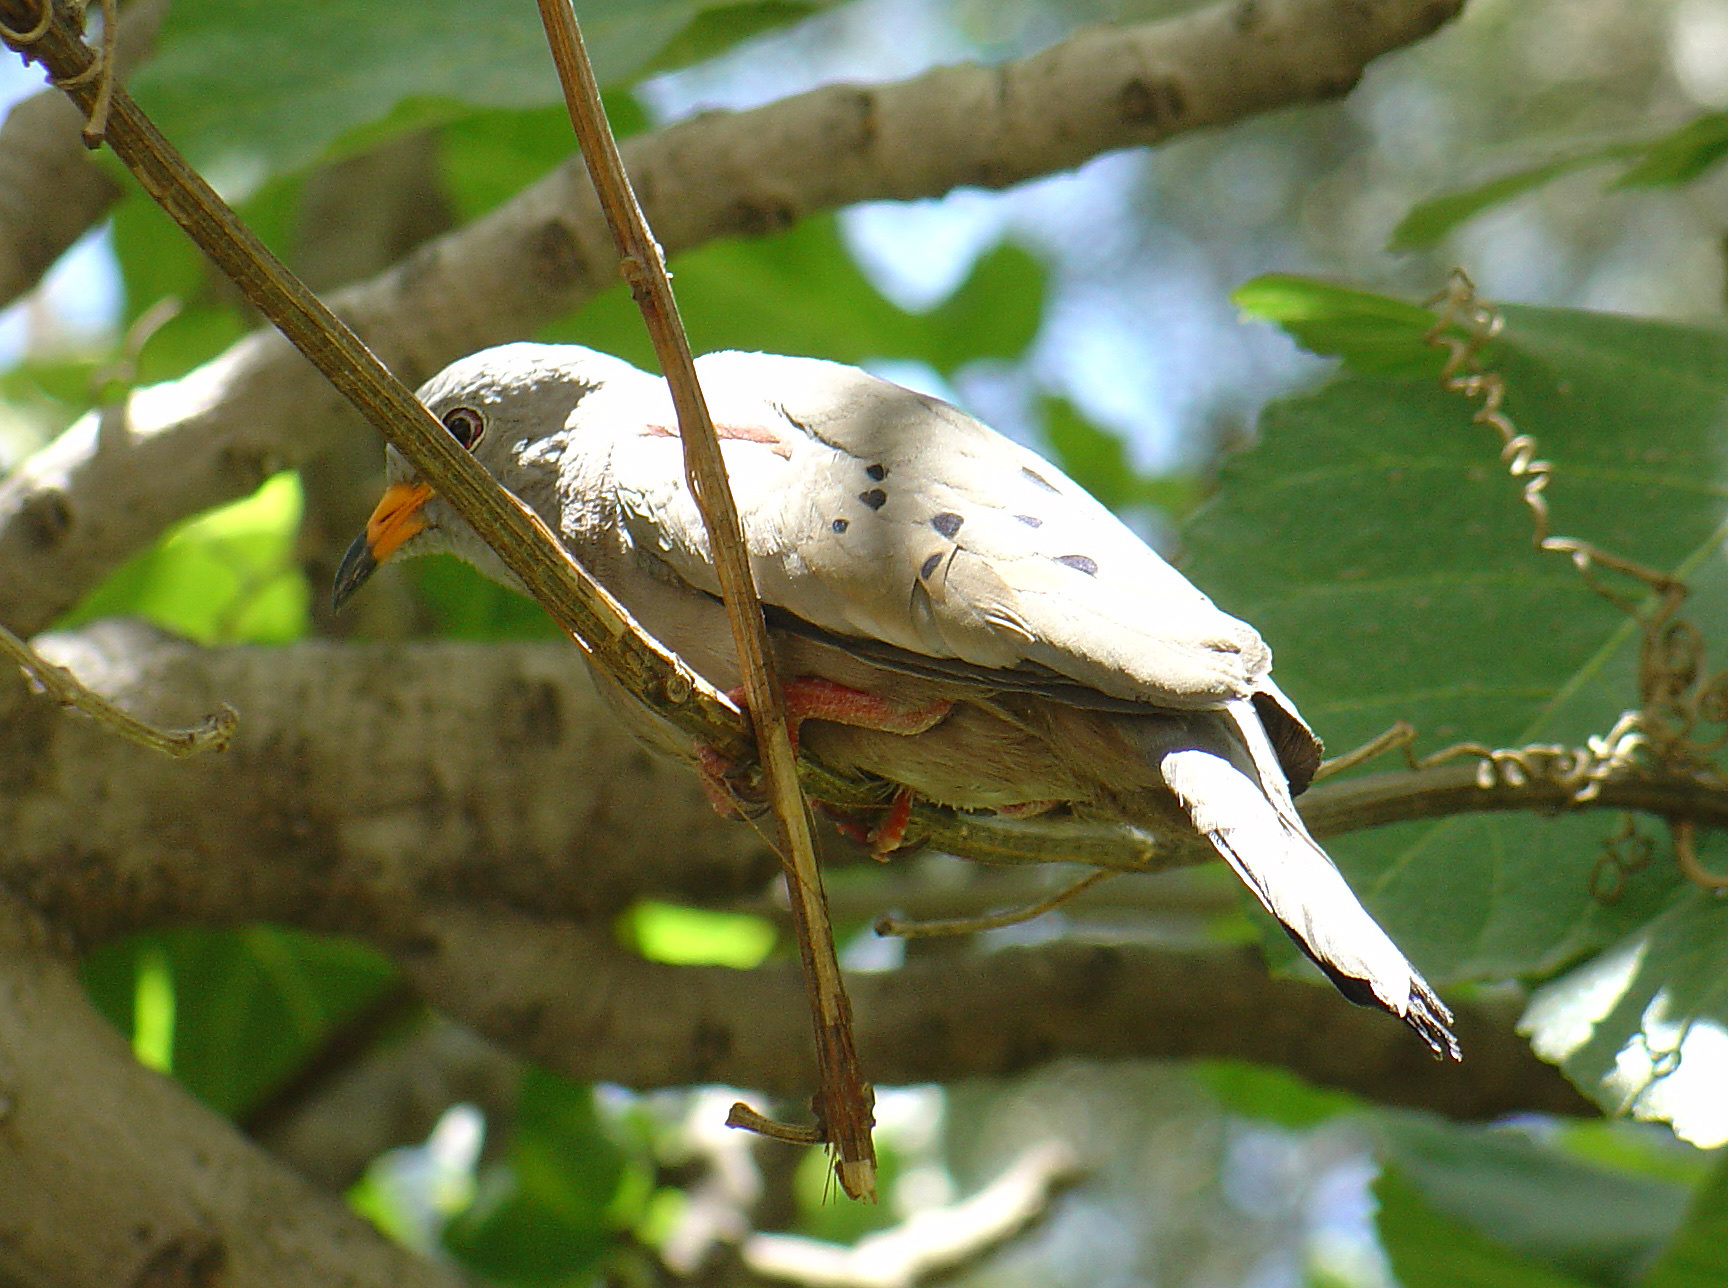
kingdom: Animalia
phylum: Chordata
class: Aves
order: Columbiformes
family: Columbidae
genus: Columbina
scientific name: Columbina cruziana
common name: Croaking ground dove
